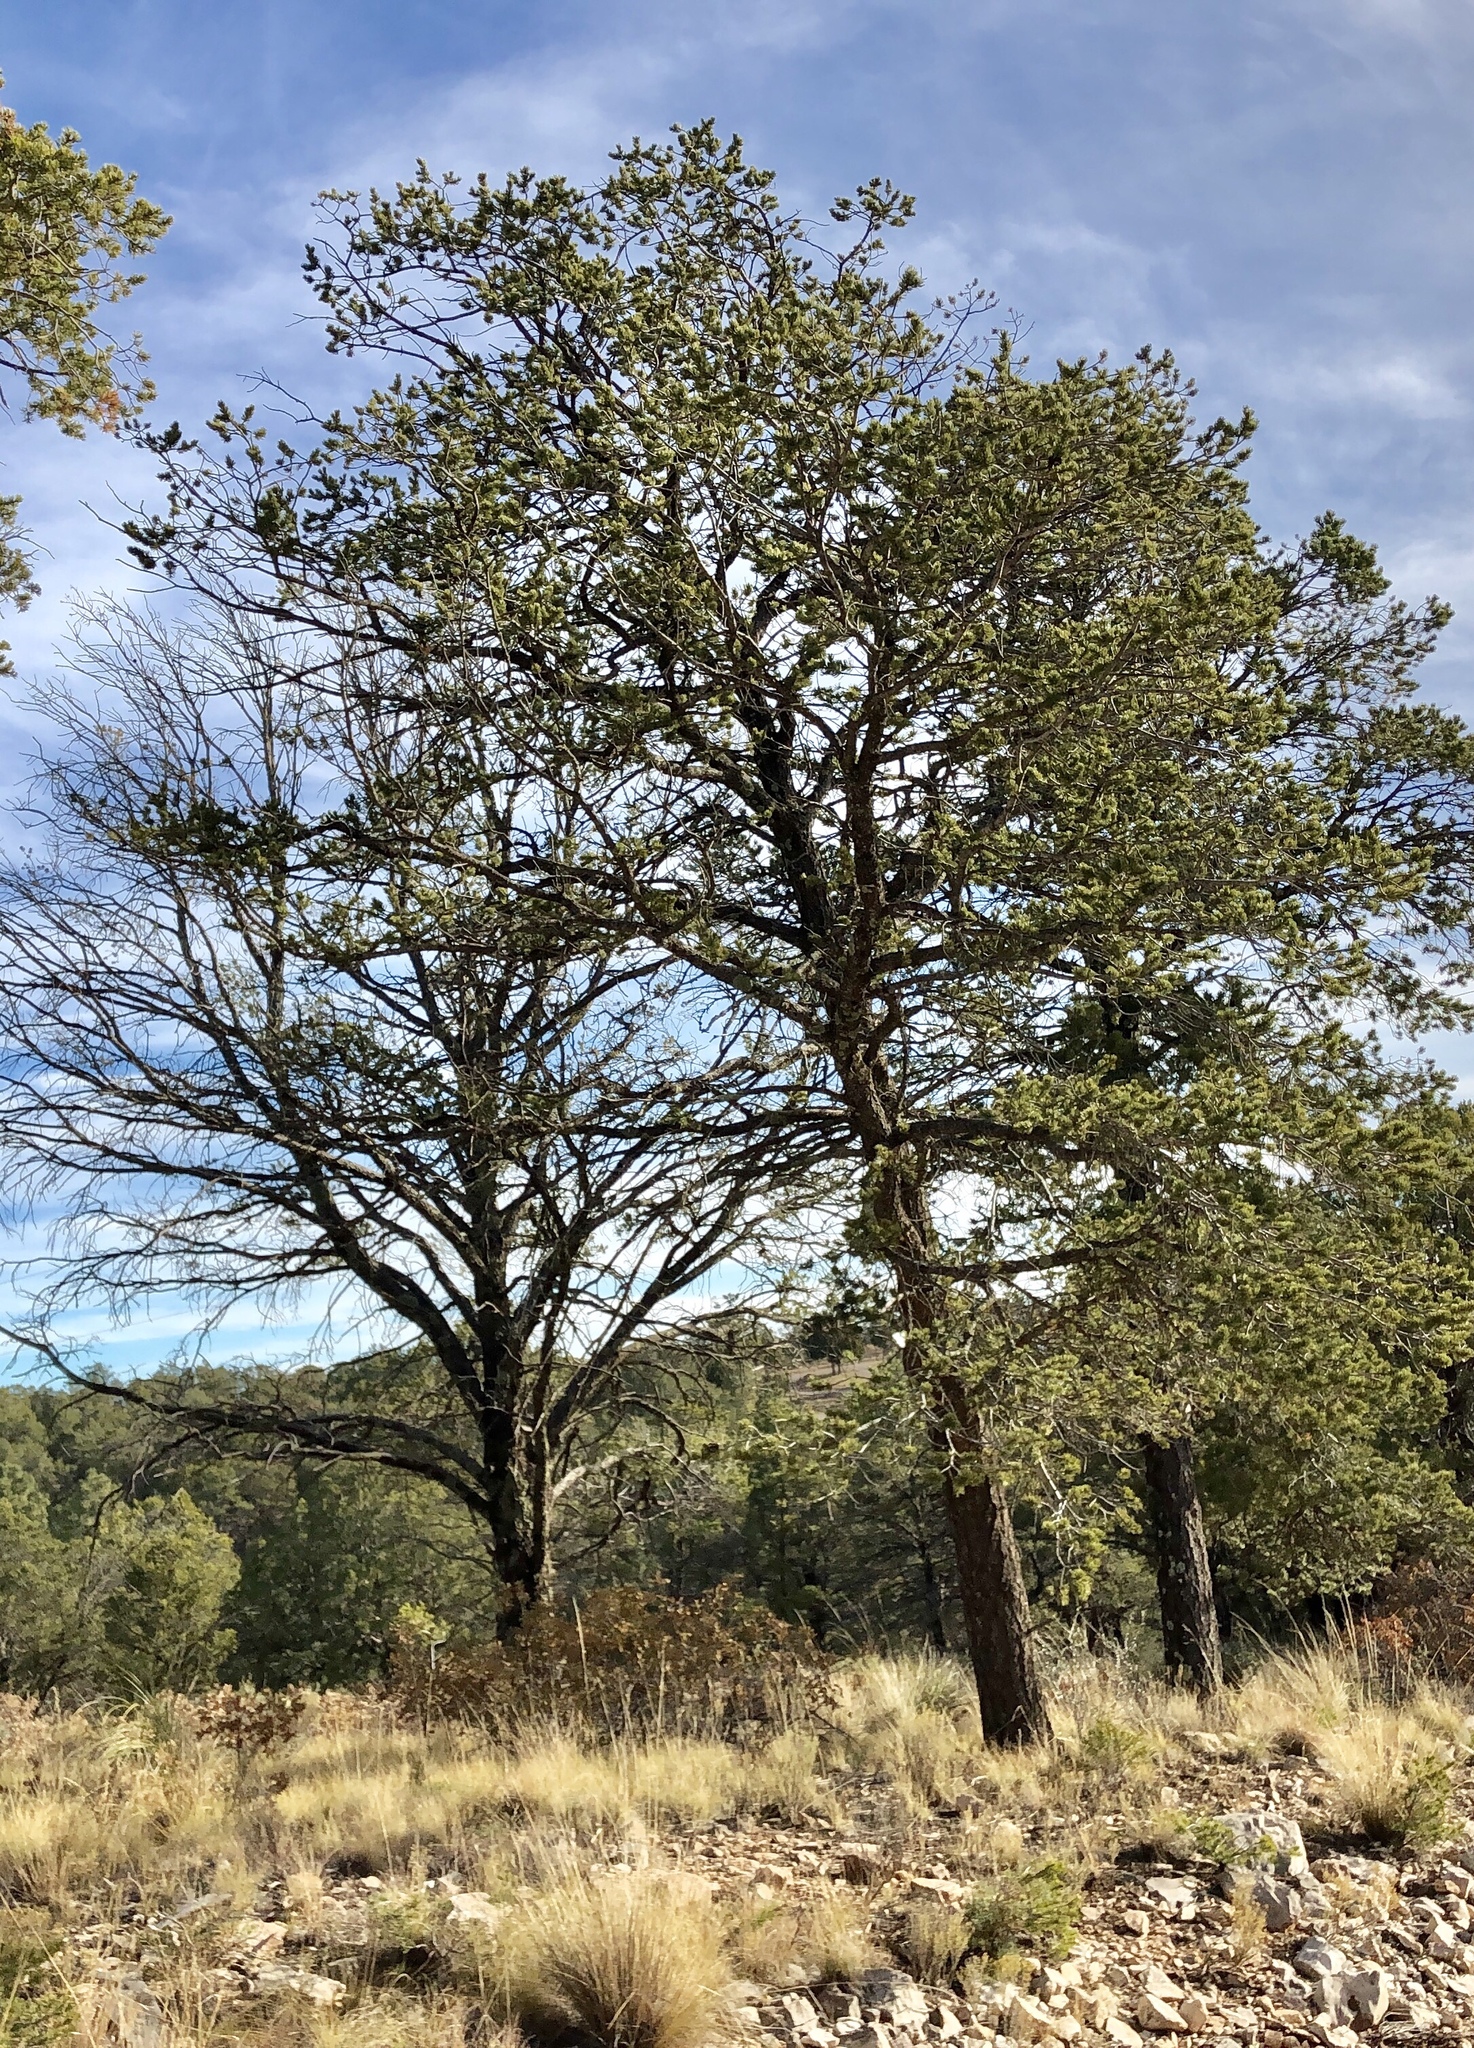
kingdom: Plantae
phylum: Tracheophyta
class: Pinopsida
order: Pinales
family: Pinaceae
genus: Pinus
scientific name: Pinus edulis
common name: Colorado pinyon
